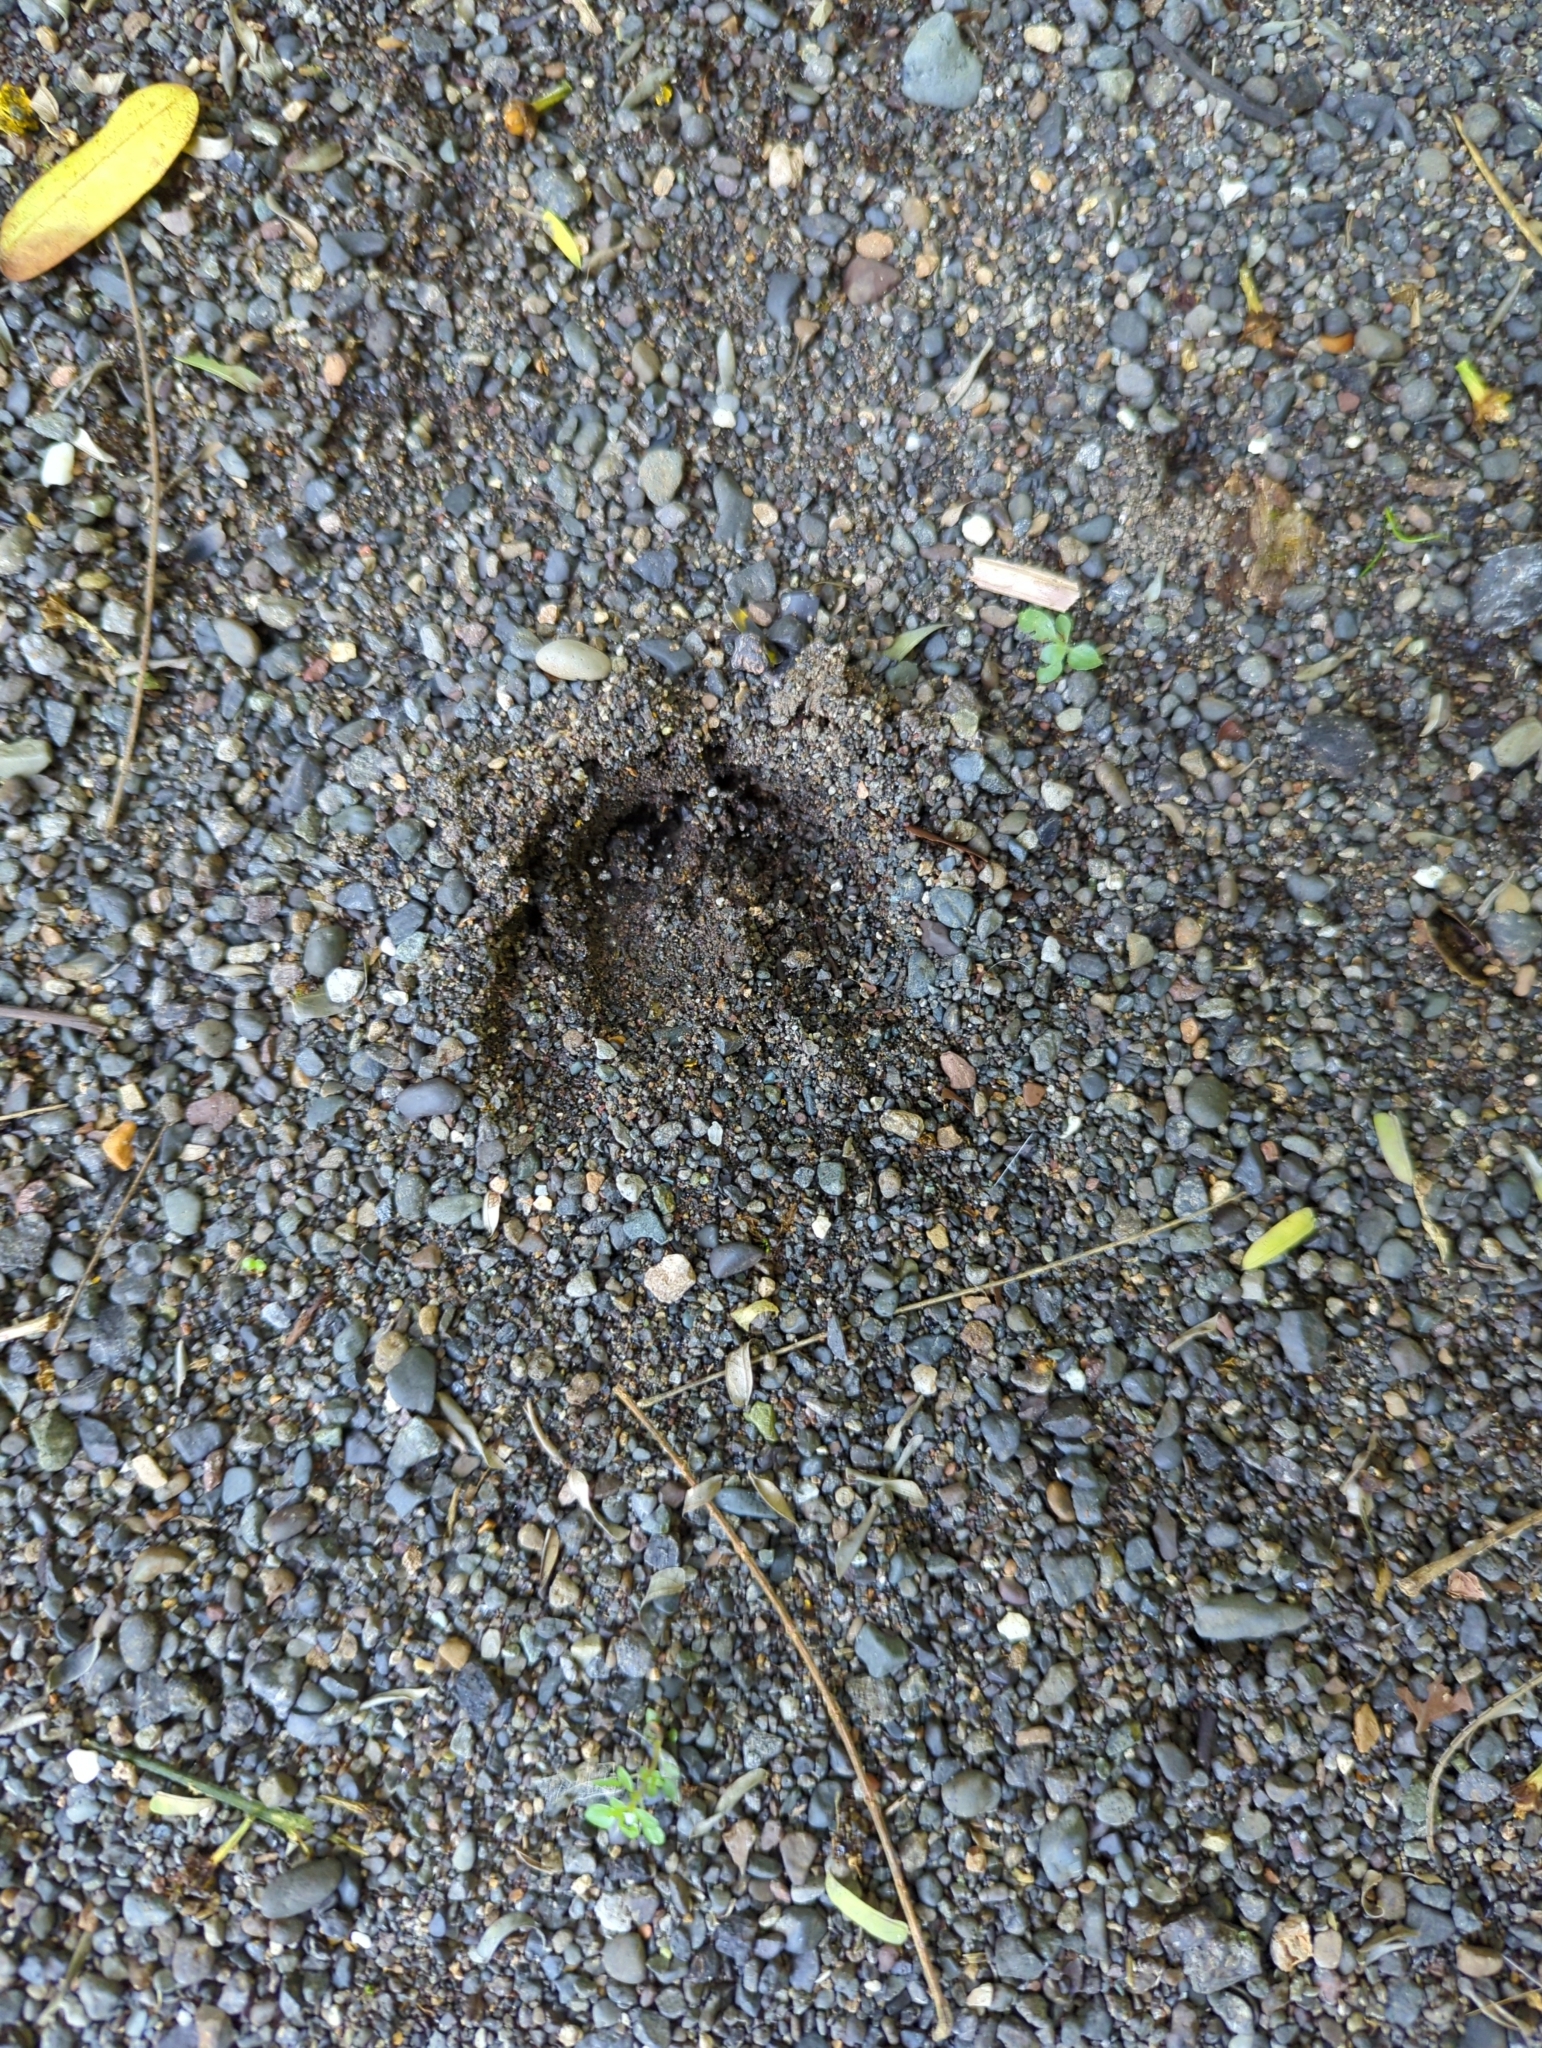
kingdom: Animalia
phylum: Chordata
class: Mammalia
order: Artiodactyla
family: Cervidae
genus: Odocoileus
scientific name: Odocoileus virginianus
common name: White-tailed deer
